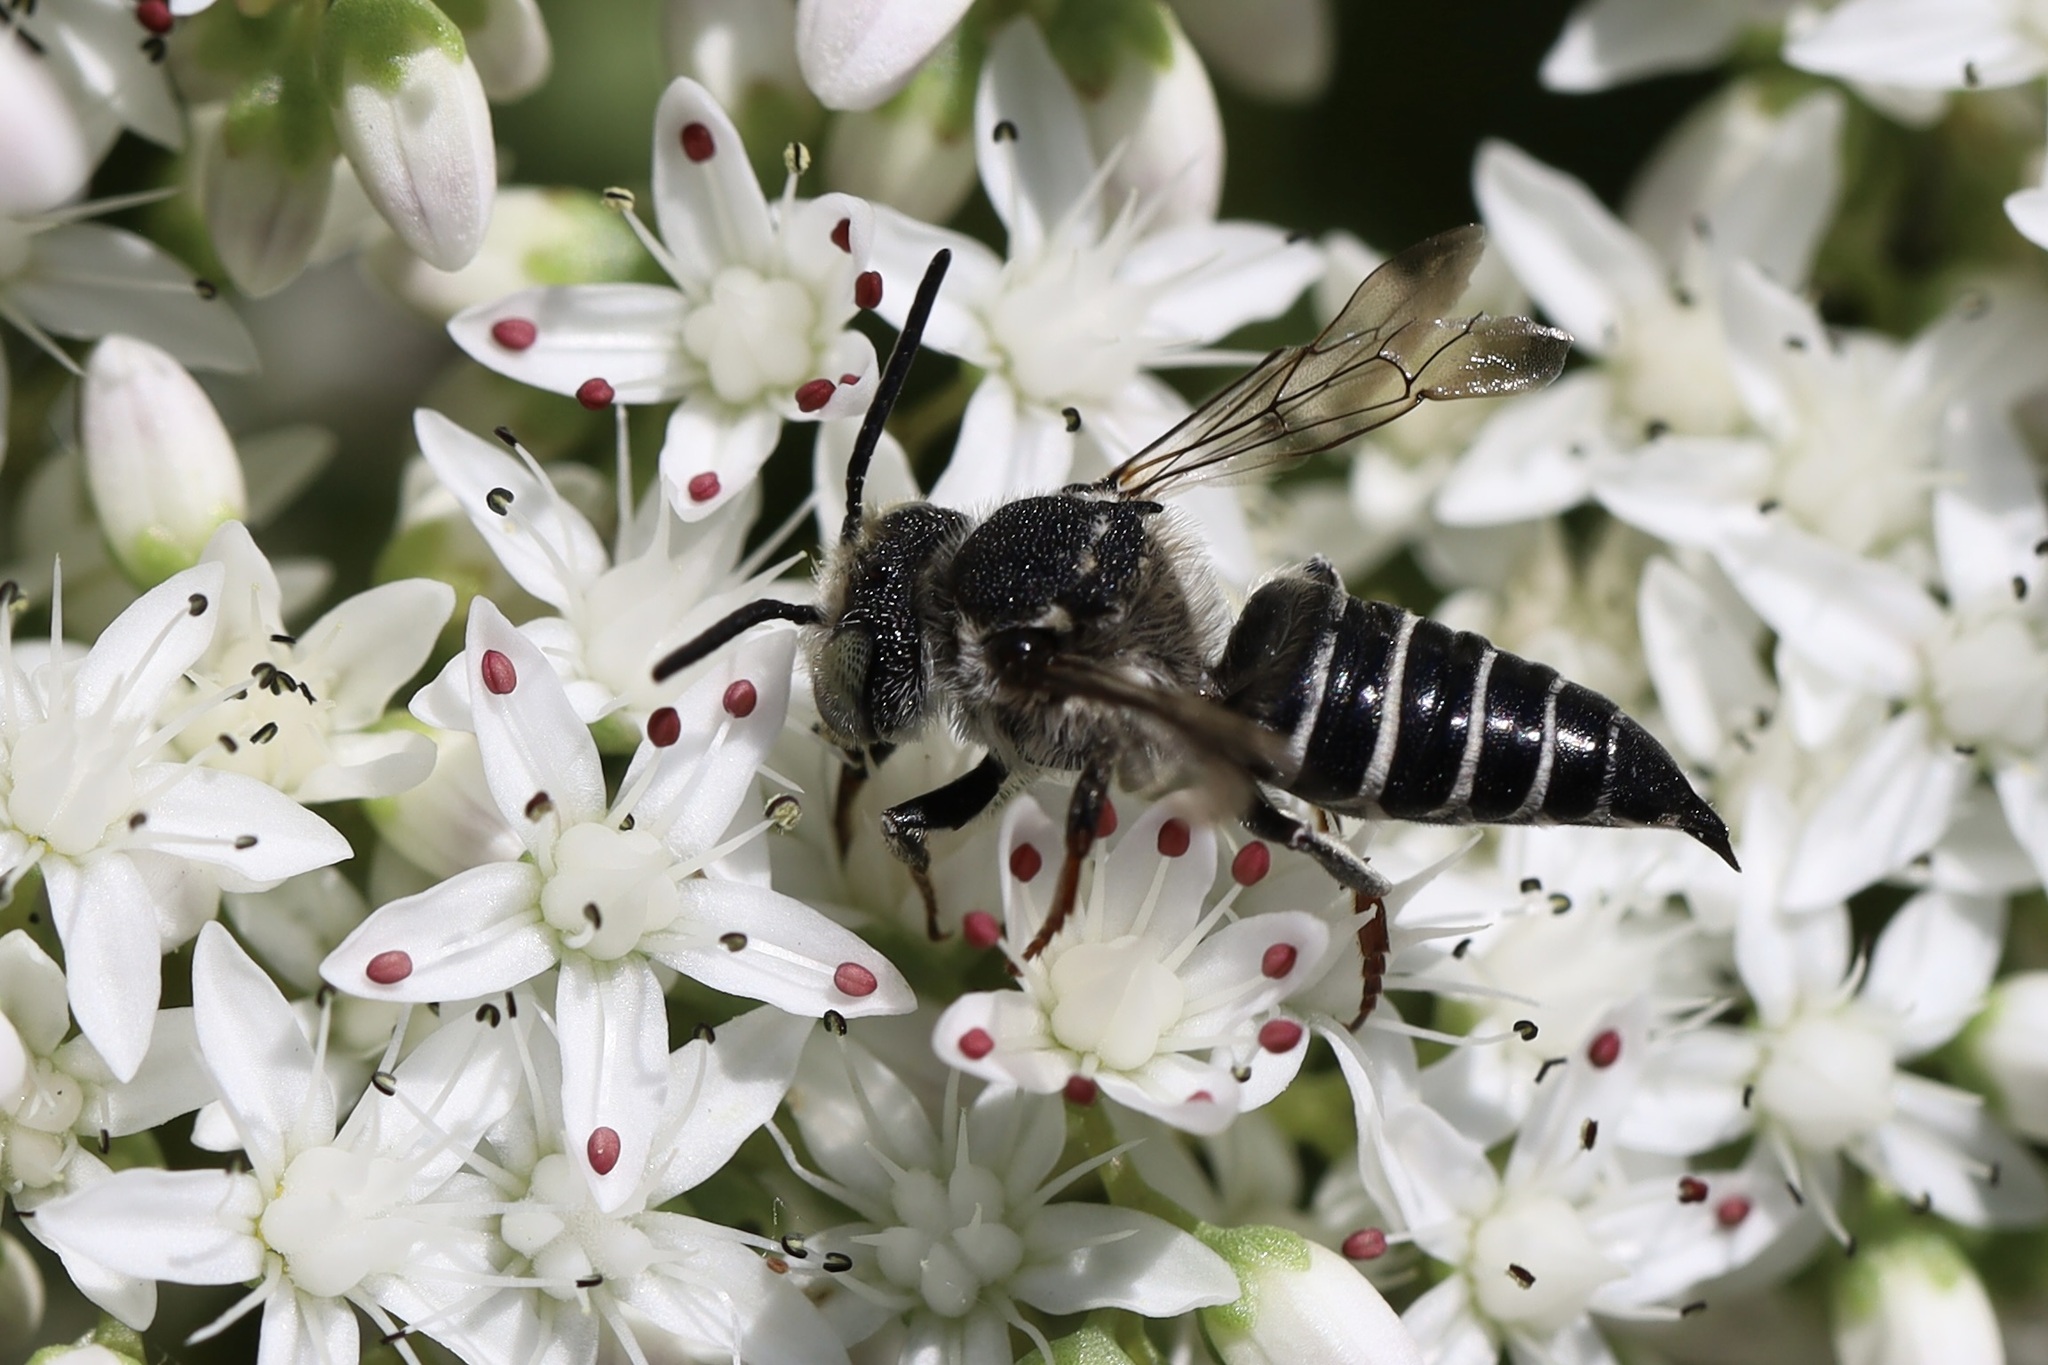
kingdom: Animalia
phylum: Arthropoda
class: Insecta
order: Hymenoptera
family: Megachilidae
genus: Coelioxys
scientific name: Coelioxys rufitarsis
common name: Red-footed sharptail
